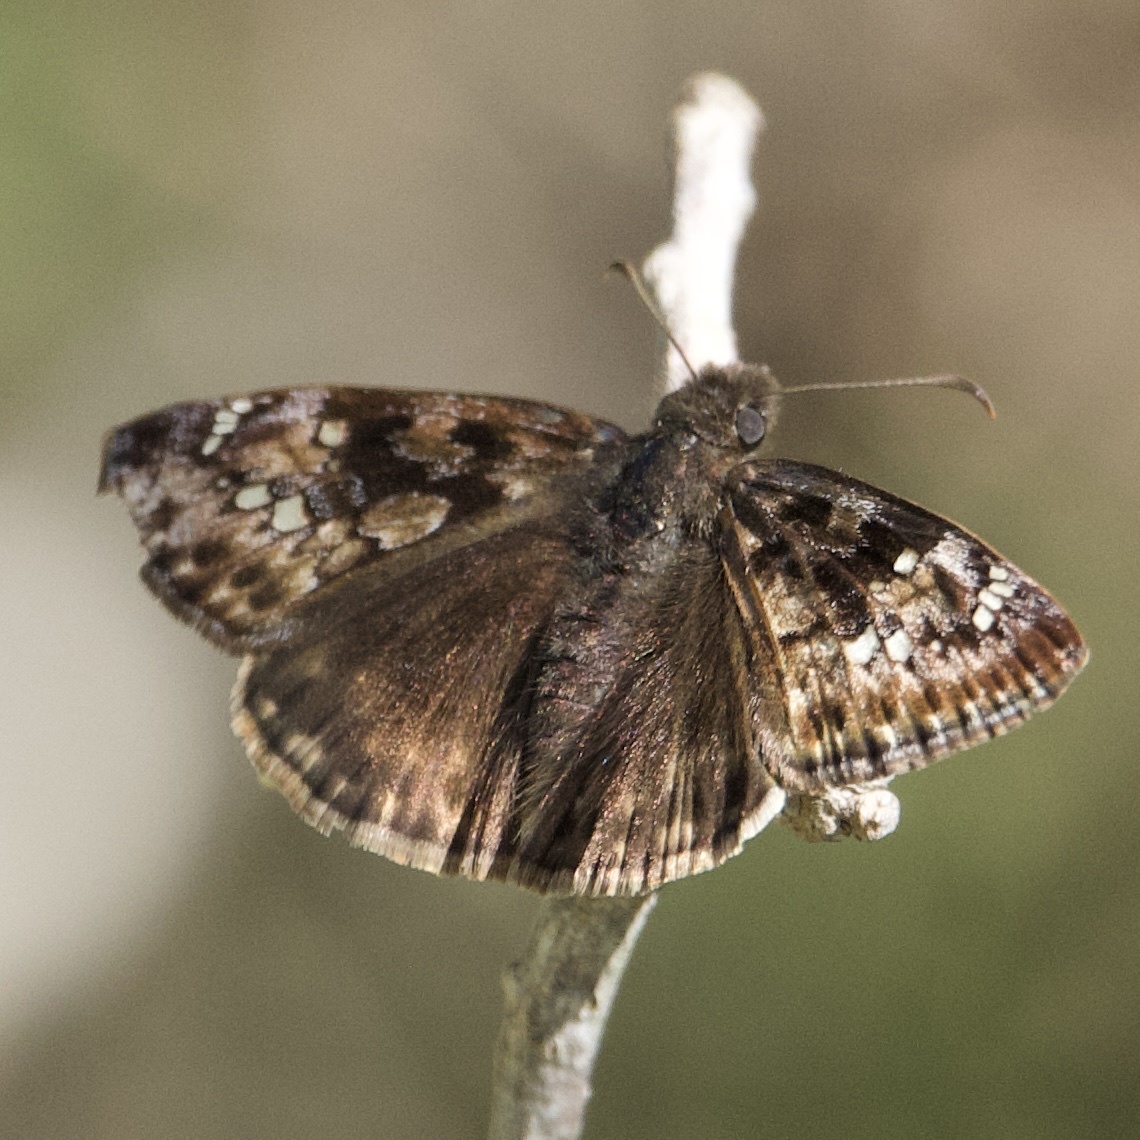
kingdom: Animalia
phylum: Arthropoda
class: Insecta
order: Lepidoptera
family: Hesperiidae
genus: Erynnis
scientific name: Erynnis horatius
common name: Horace's duskywing
